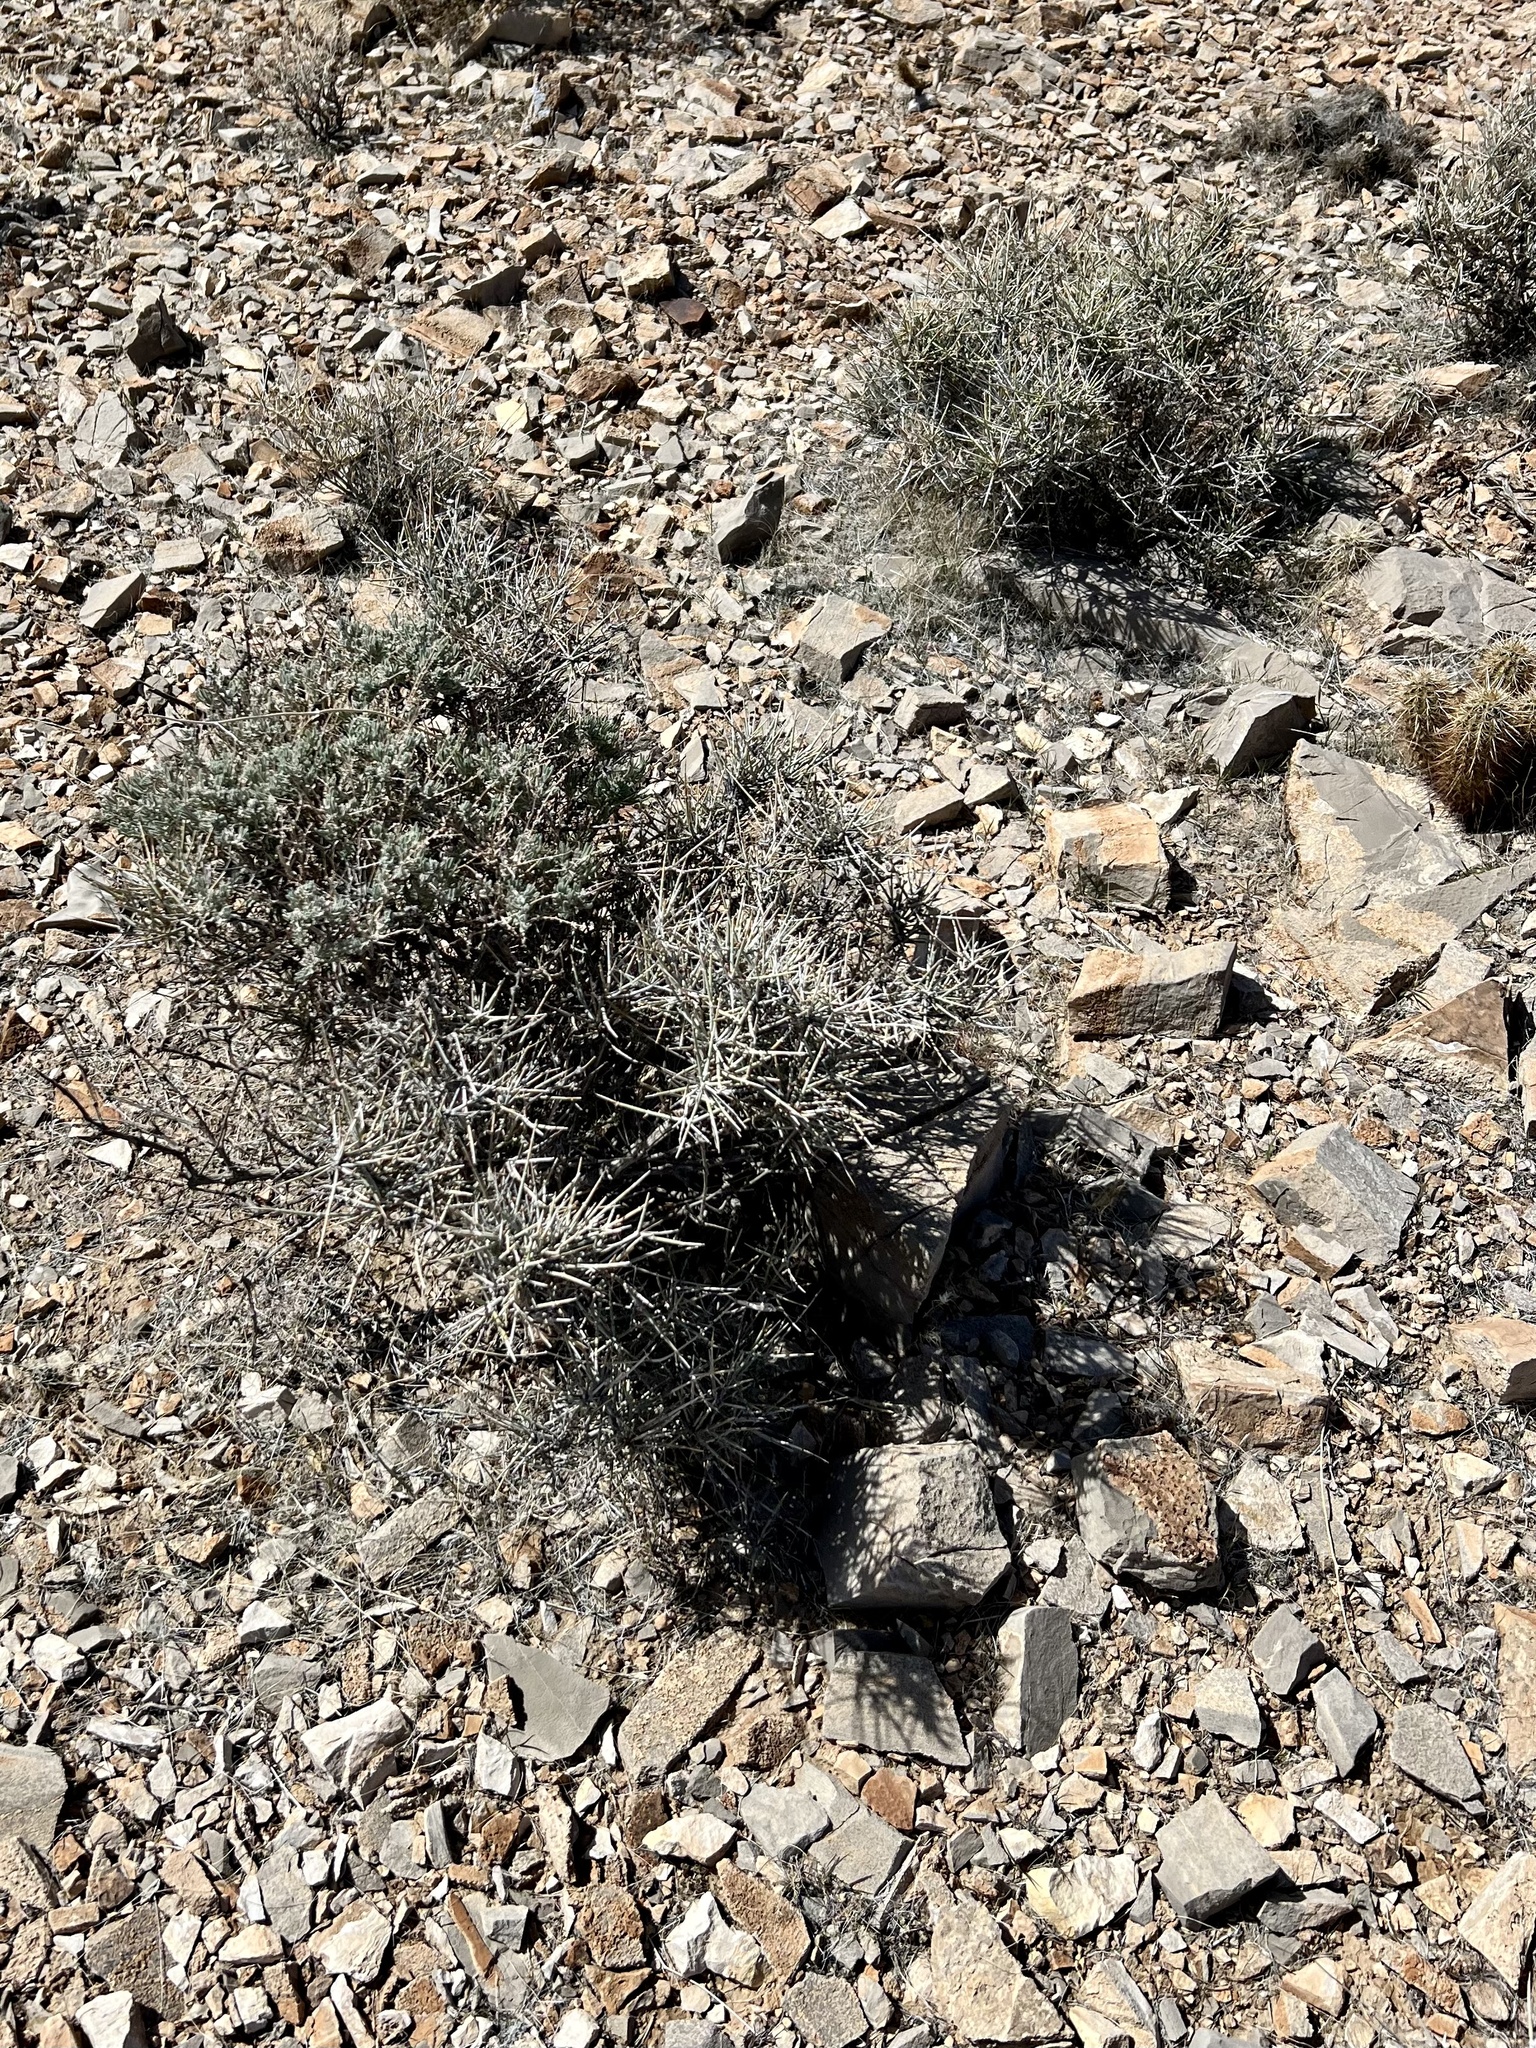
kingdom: Plantae
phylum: Tracheophyta
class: Gnetopsida
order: Ephedrales
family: Ephedraceae
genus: Ephedra
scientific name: Ephedra nevadensis
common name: Gray ephedra
